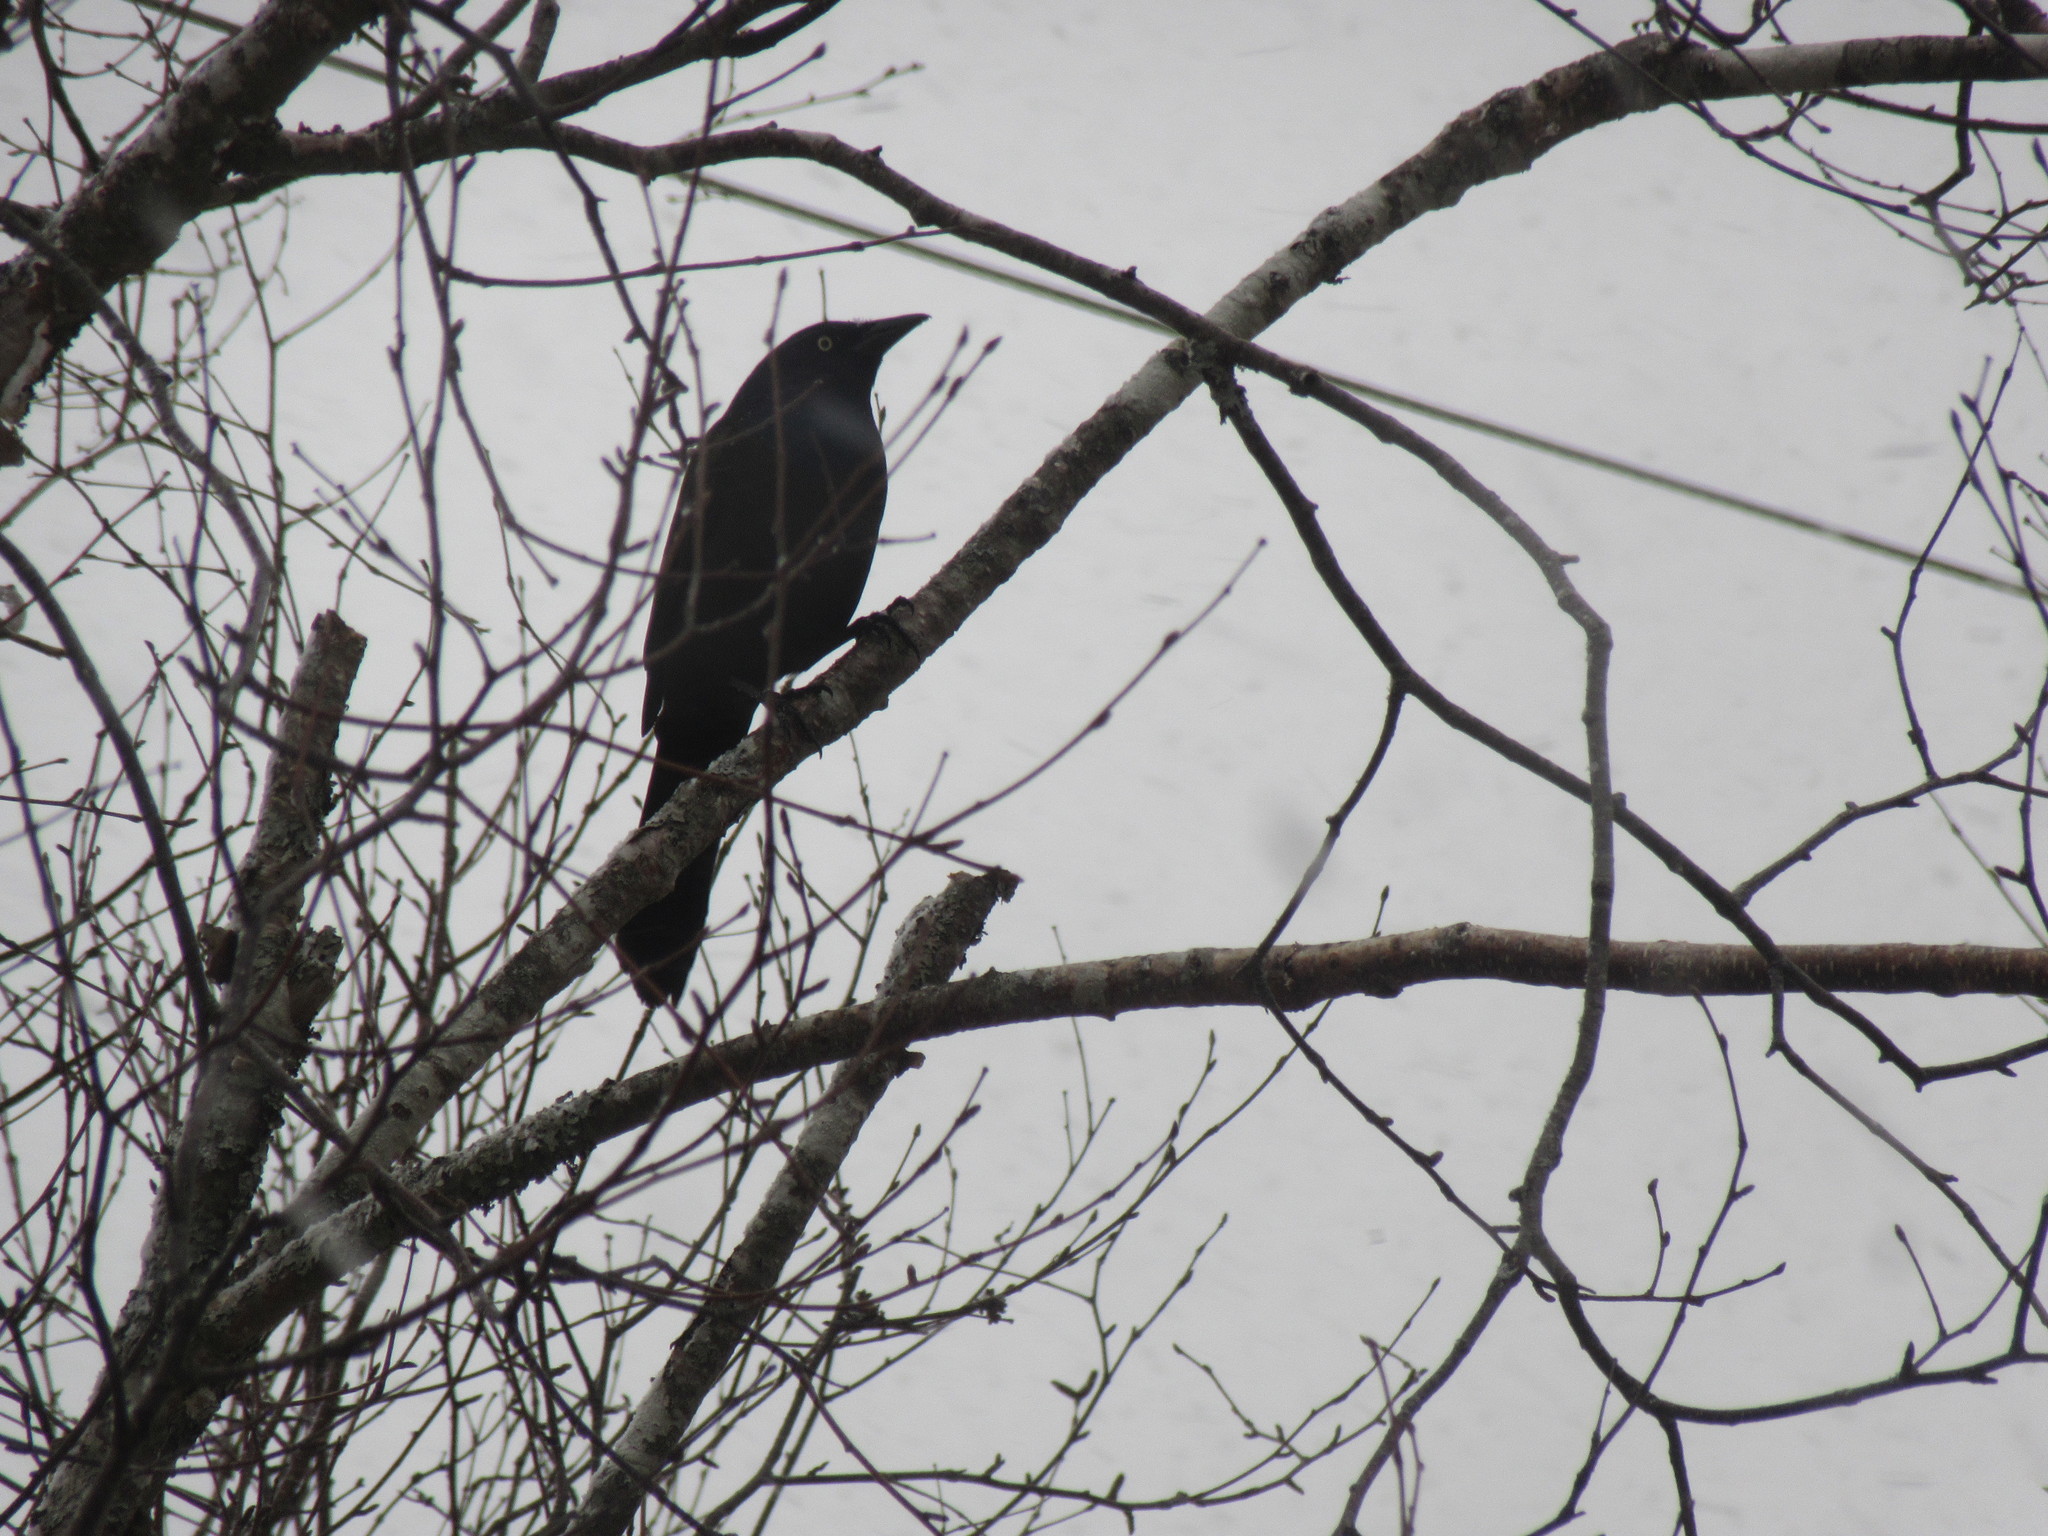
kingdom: Animalia
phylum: Chordata
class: Aves
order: Passeriformes
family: Icteridae
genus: Quiscalus
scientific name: Quiscalus quiscula
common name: Common grackle
